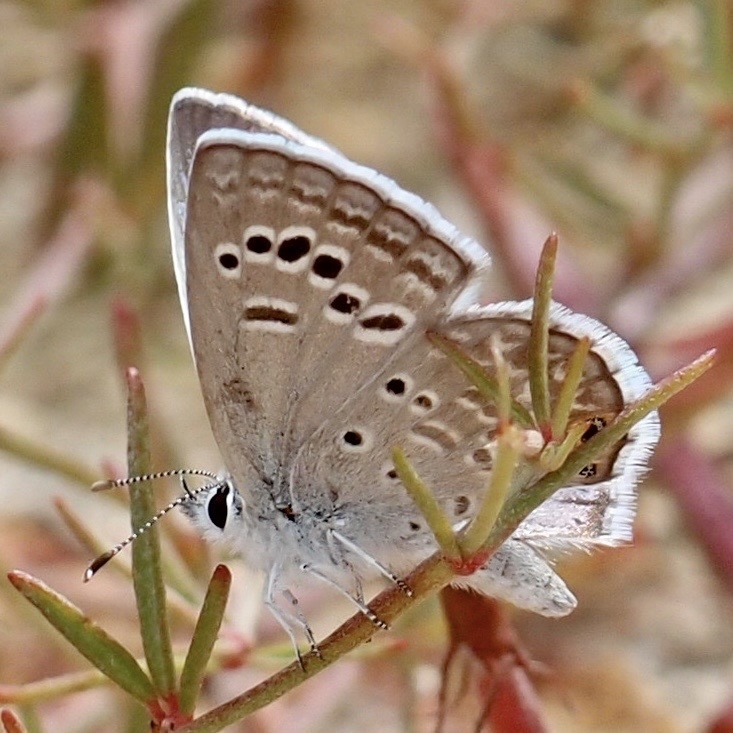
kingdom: Animalia
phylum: Arthropoda
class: Insecta
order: Lepidoptera
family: Lycaenidae
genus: Echinargus
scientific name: Echinargus isola
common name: Reakirt's blue
